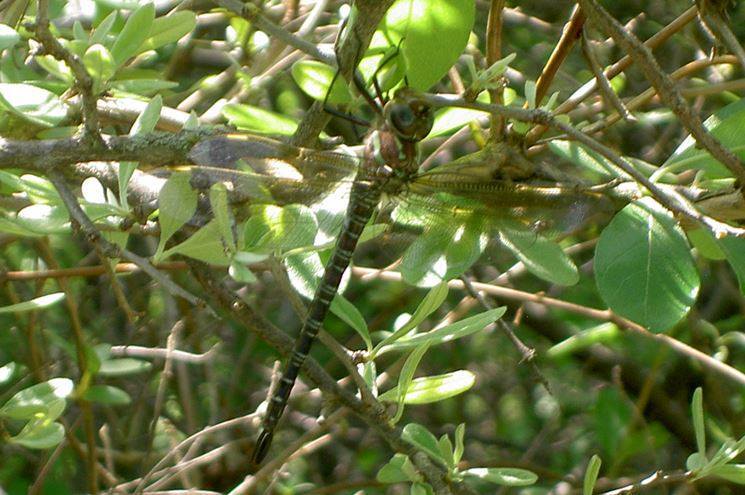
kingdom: Animalia
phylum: Arthropoda
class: Insecta
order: Odonata
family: Aeshnidae
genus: Epiaeschna
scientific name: Epiaeschna heros
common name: Swamp darner
